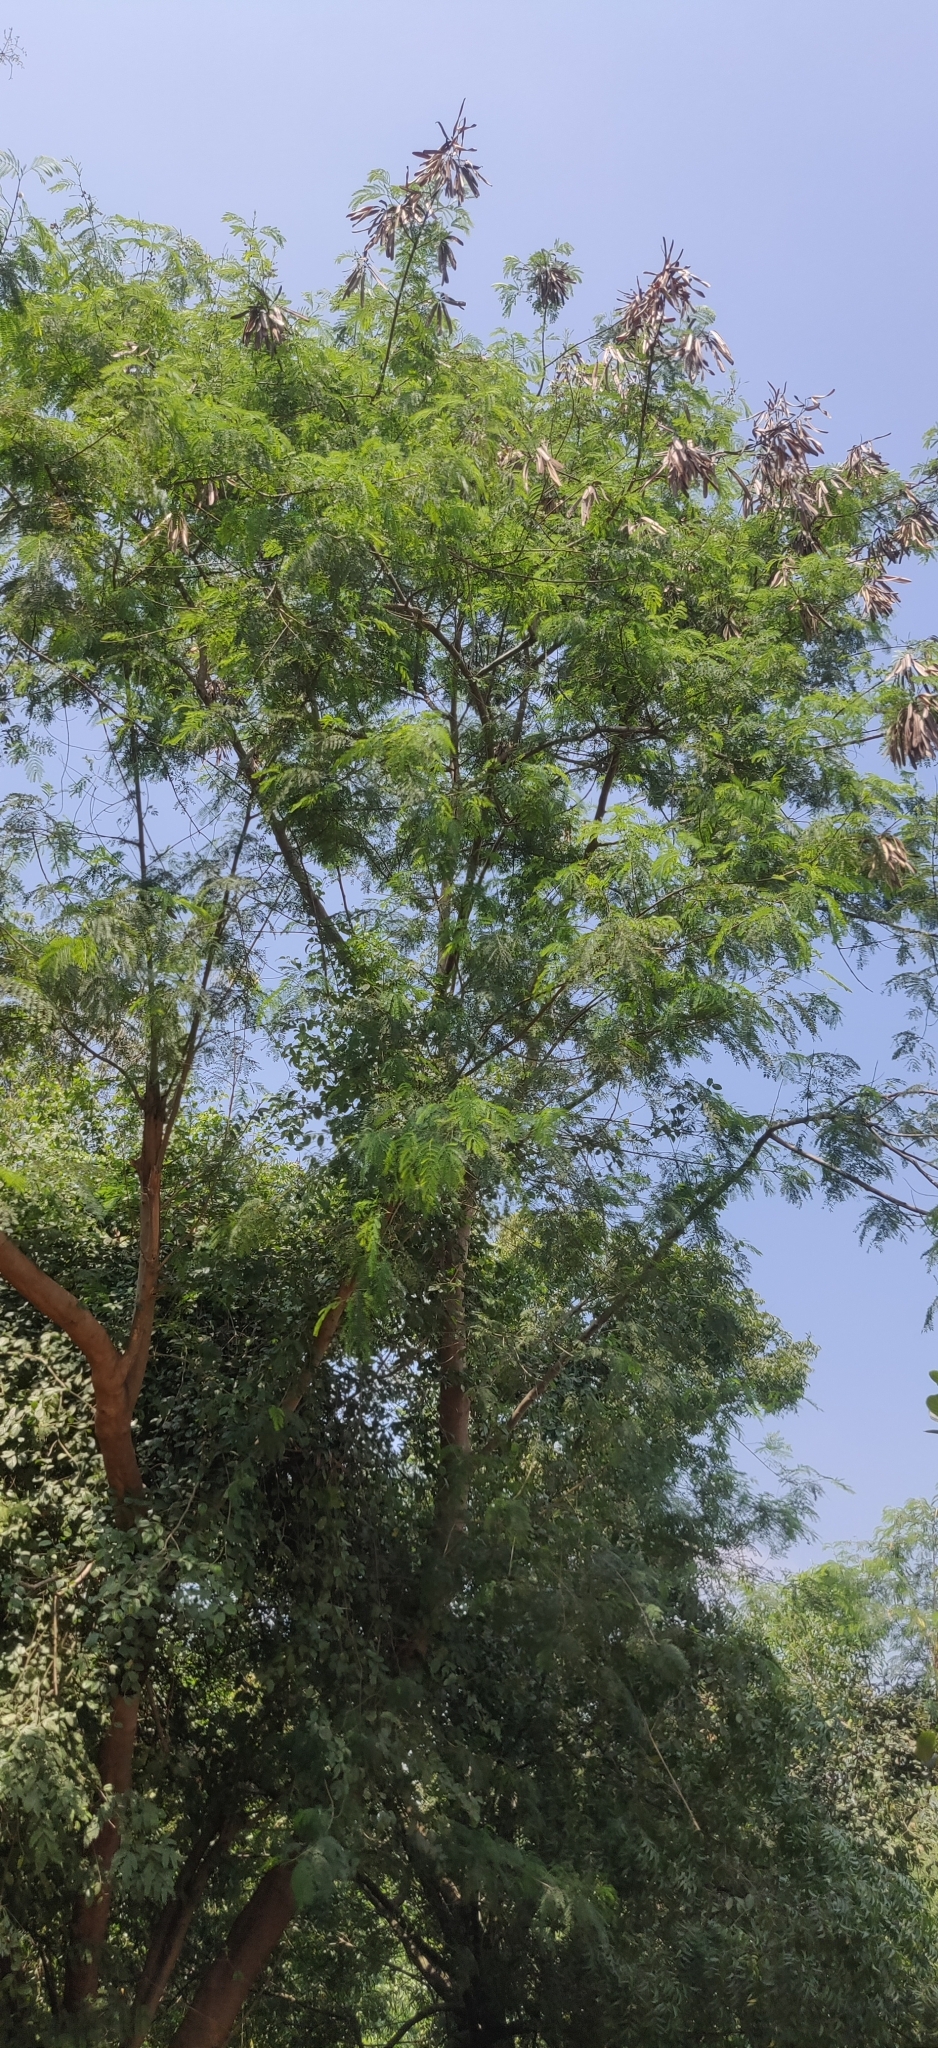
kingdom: Plantae
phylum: Tracheophyta
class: Magnoliopsida
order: Fabales
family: Fabaceae
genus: Leucaena
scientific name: Leucaena leucocephala
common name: White leadtree
